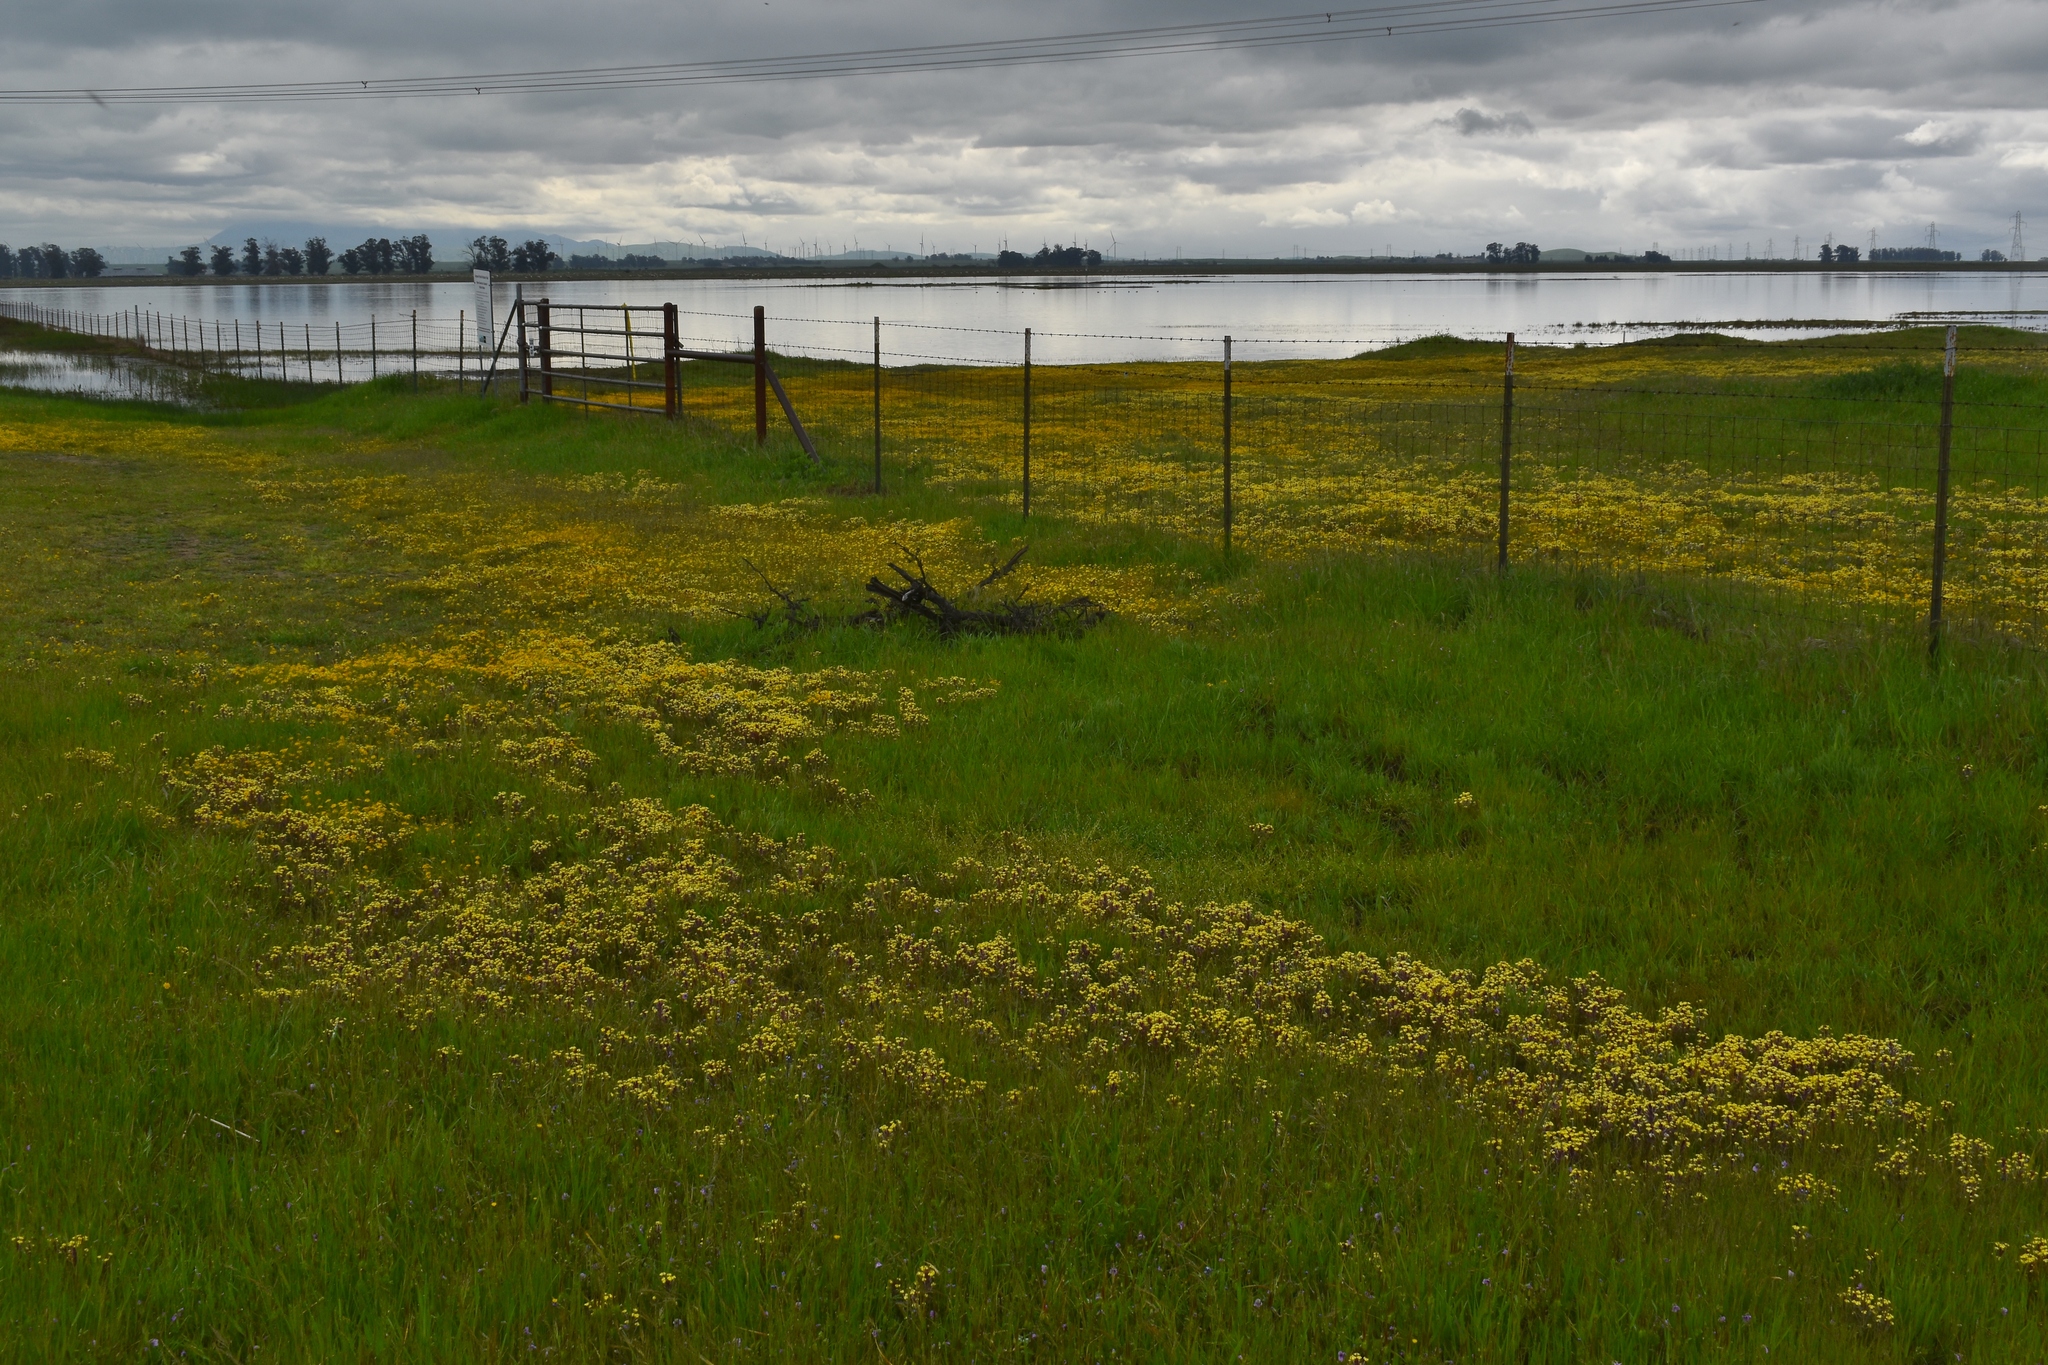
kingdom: Plantae
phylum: Tracheophyta
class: Magnoliopsida
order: Lamiales
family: Orobanchaceae
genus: Triphysaria
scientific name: Triphysaria eriantha
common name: Johnny-tuck
